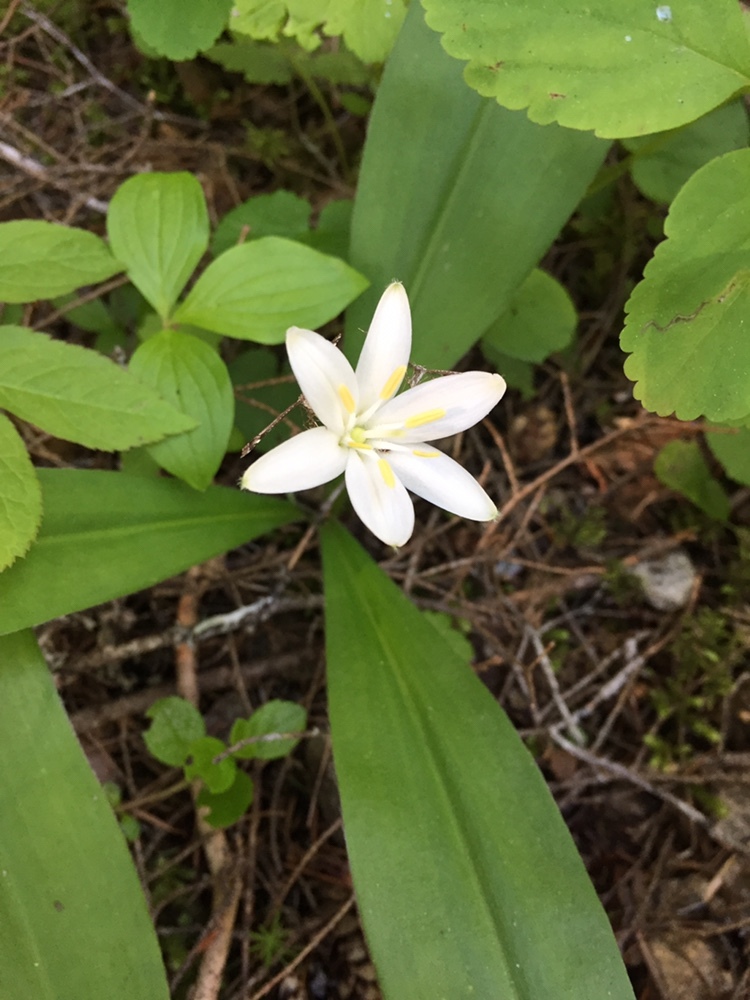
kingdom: Plantae
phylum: Tracheophyta
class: Liliopsida
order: Liliales
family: Liliaceae
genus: Clintonia
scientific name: Clintonia uniflora
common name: Queen's cup
